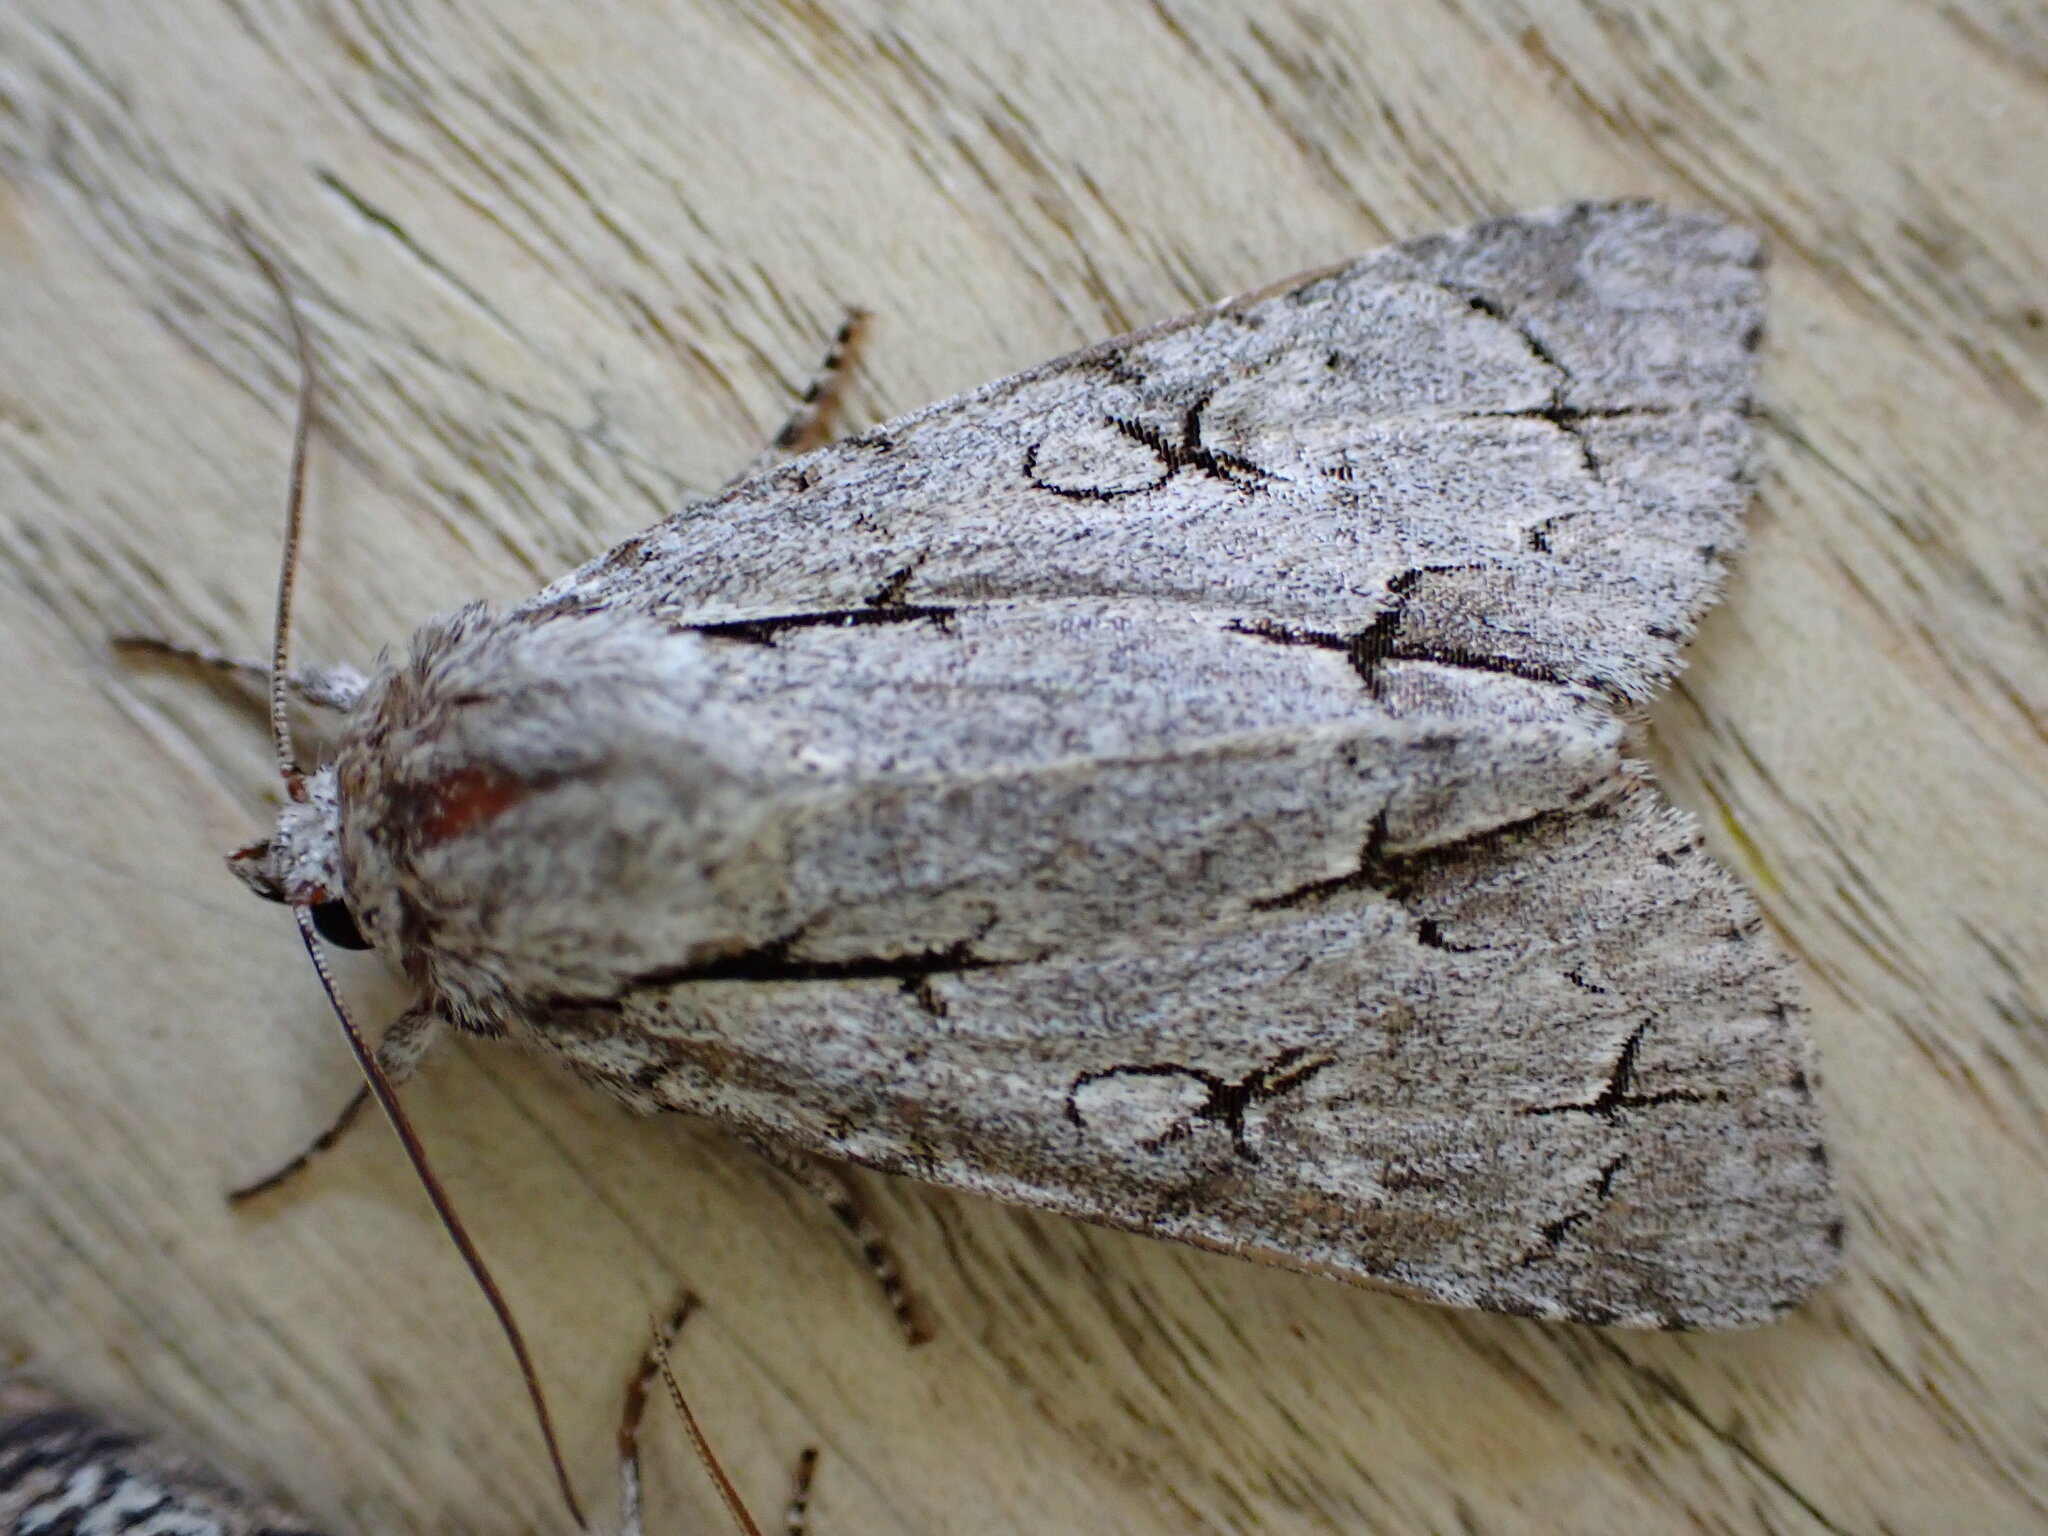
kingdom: Animalia
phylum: Arthropoda
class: Insecta
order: Lepidoptera
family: Noctuidae
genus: Acronicta
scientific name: Acronicta psi
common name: Grey dagger
